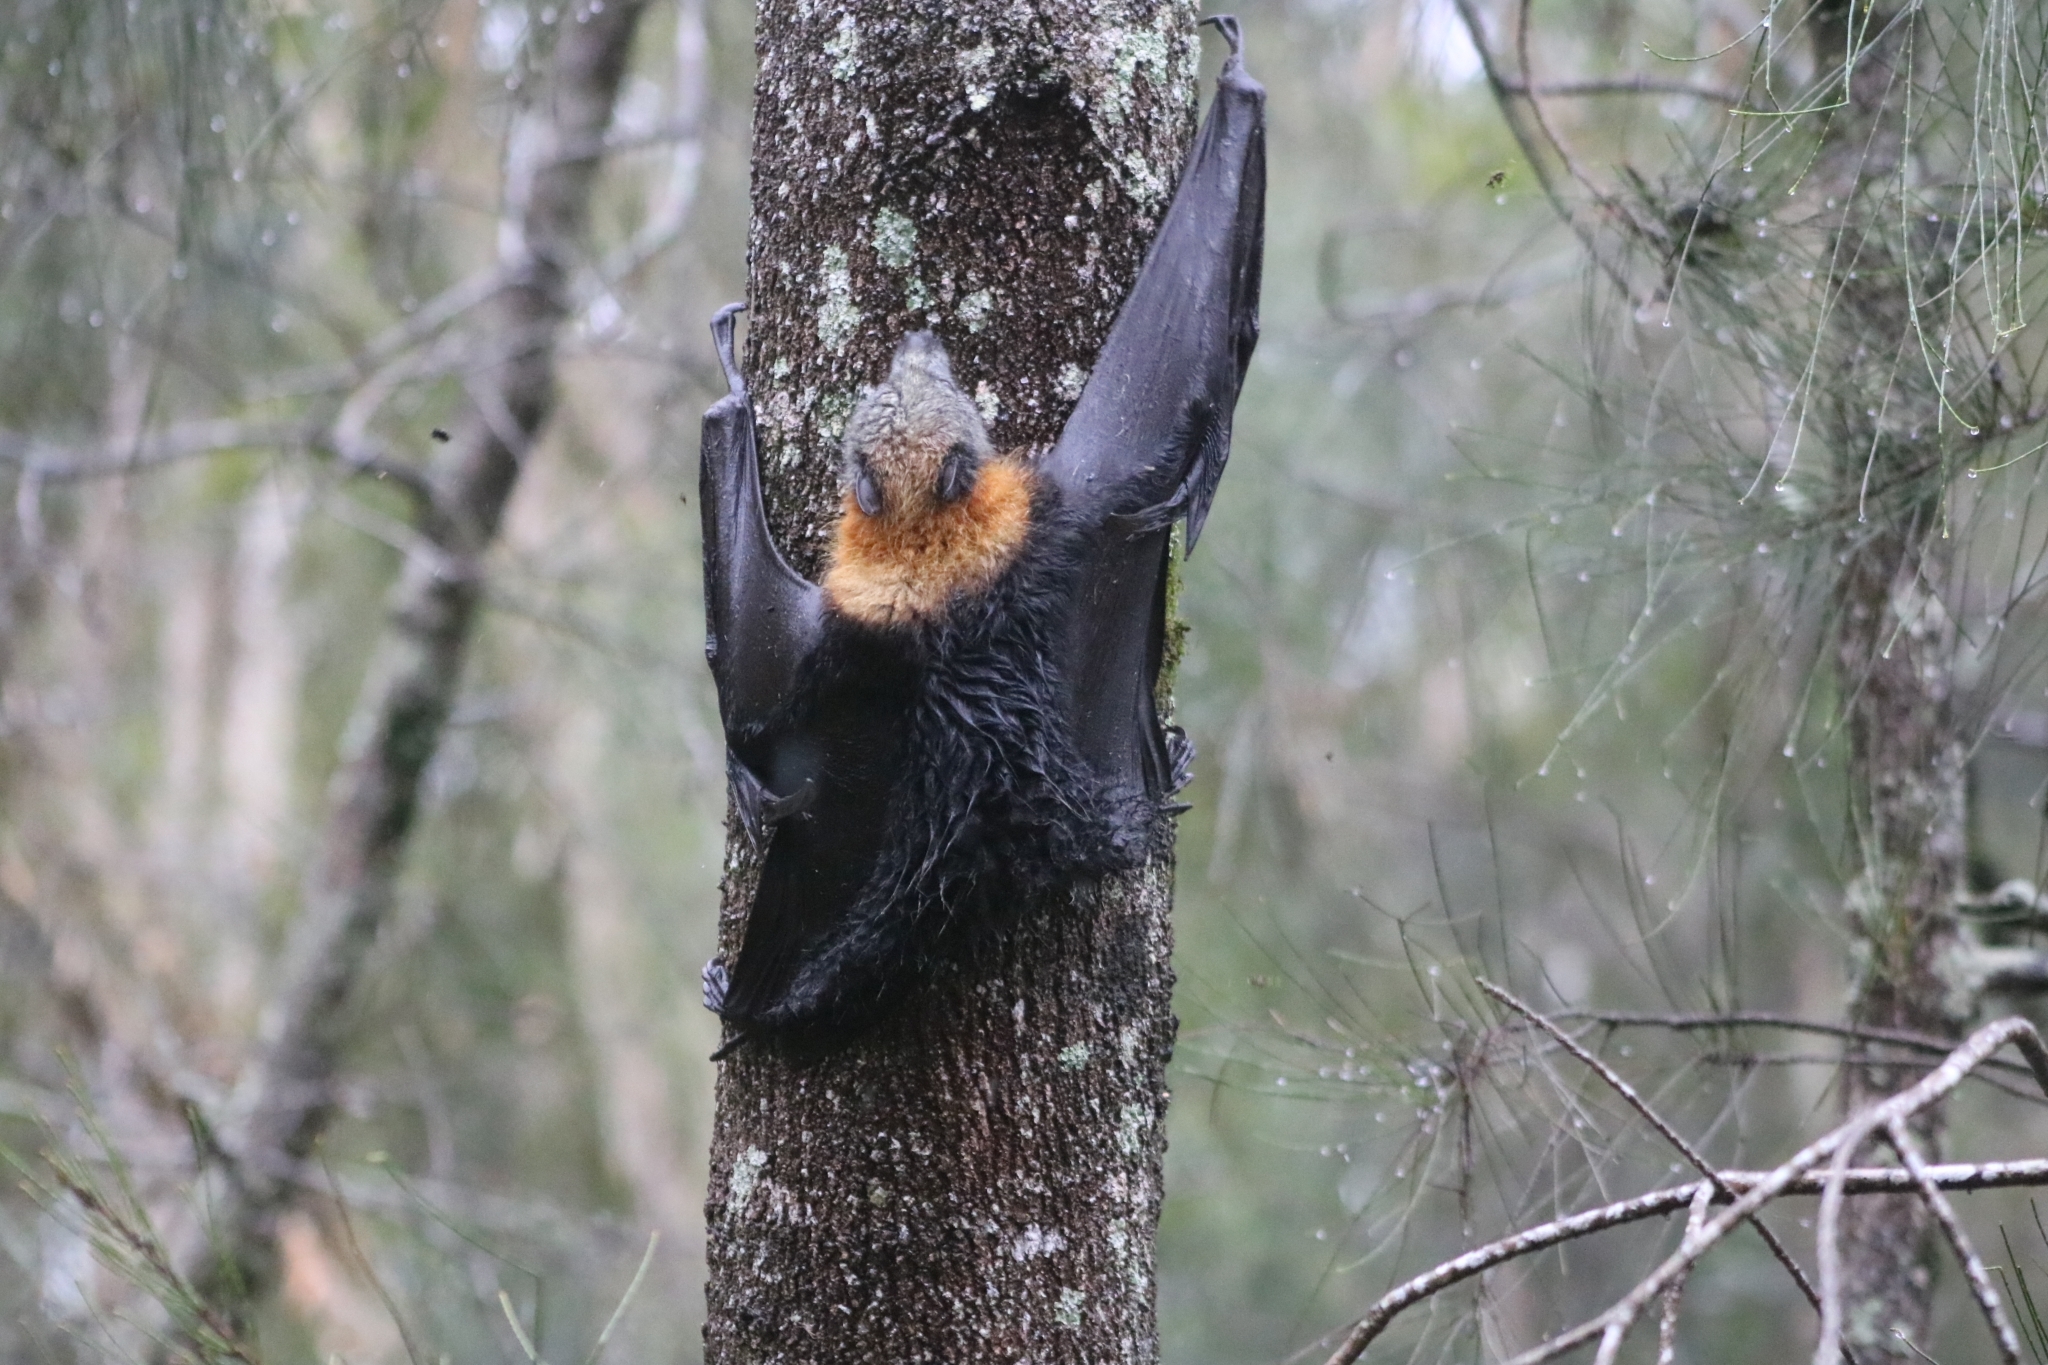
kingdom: Animalia
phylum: Chordata
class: Mammalia
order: Chiroptera
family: Pteropodidae
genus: Pteropus
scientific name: Pteropus poliocephalus
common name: Gray-headed flying fox
